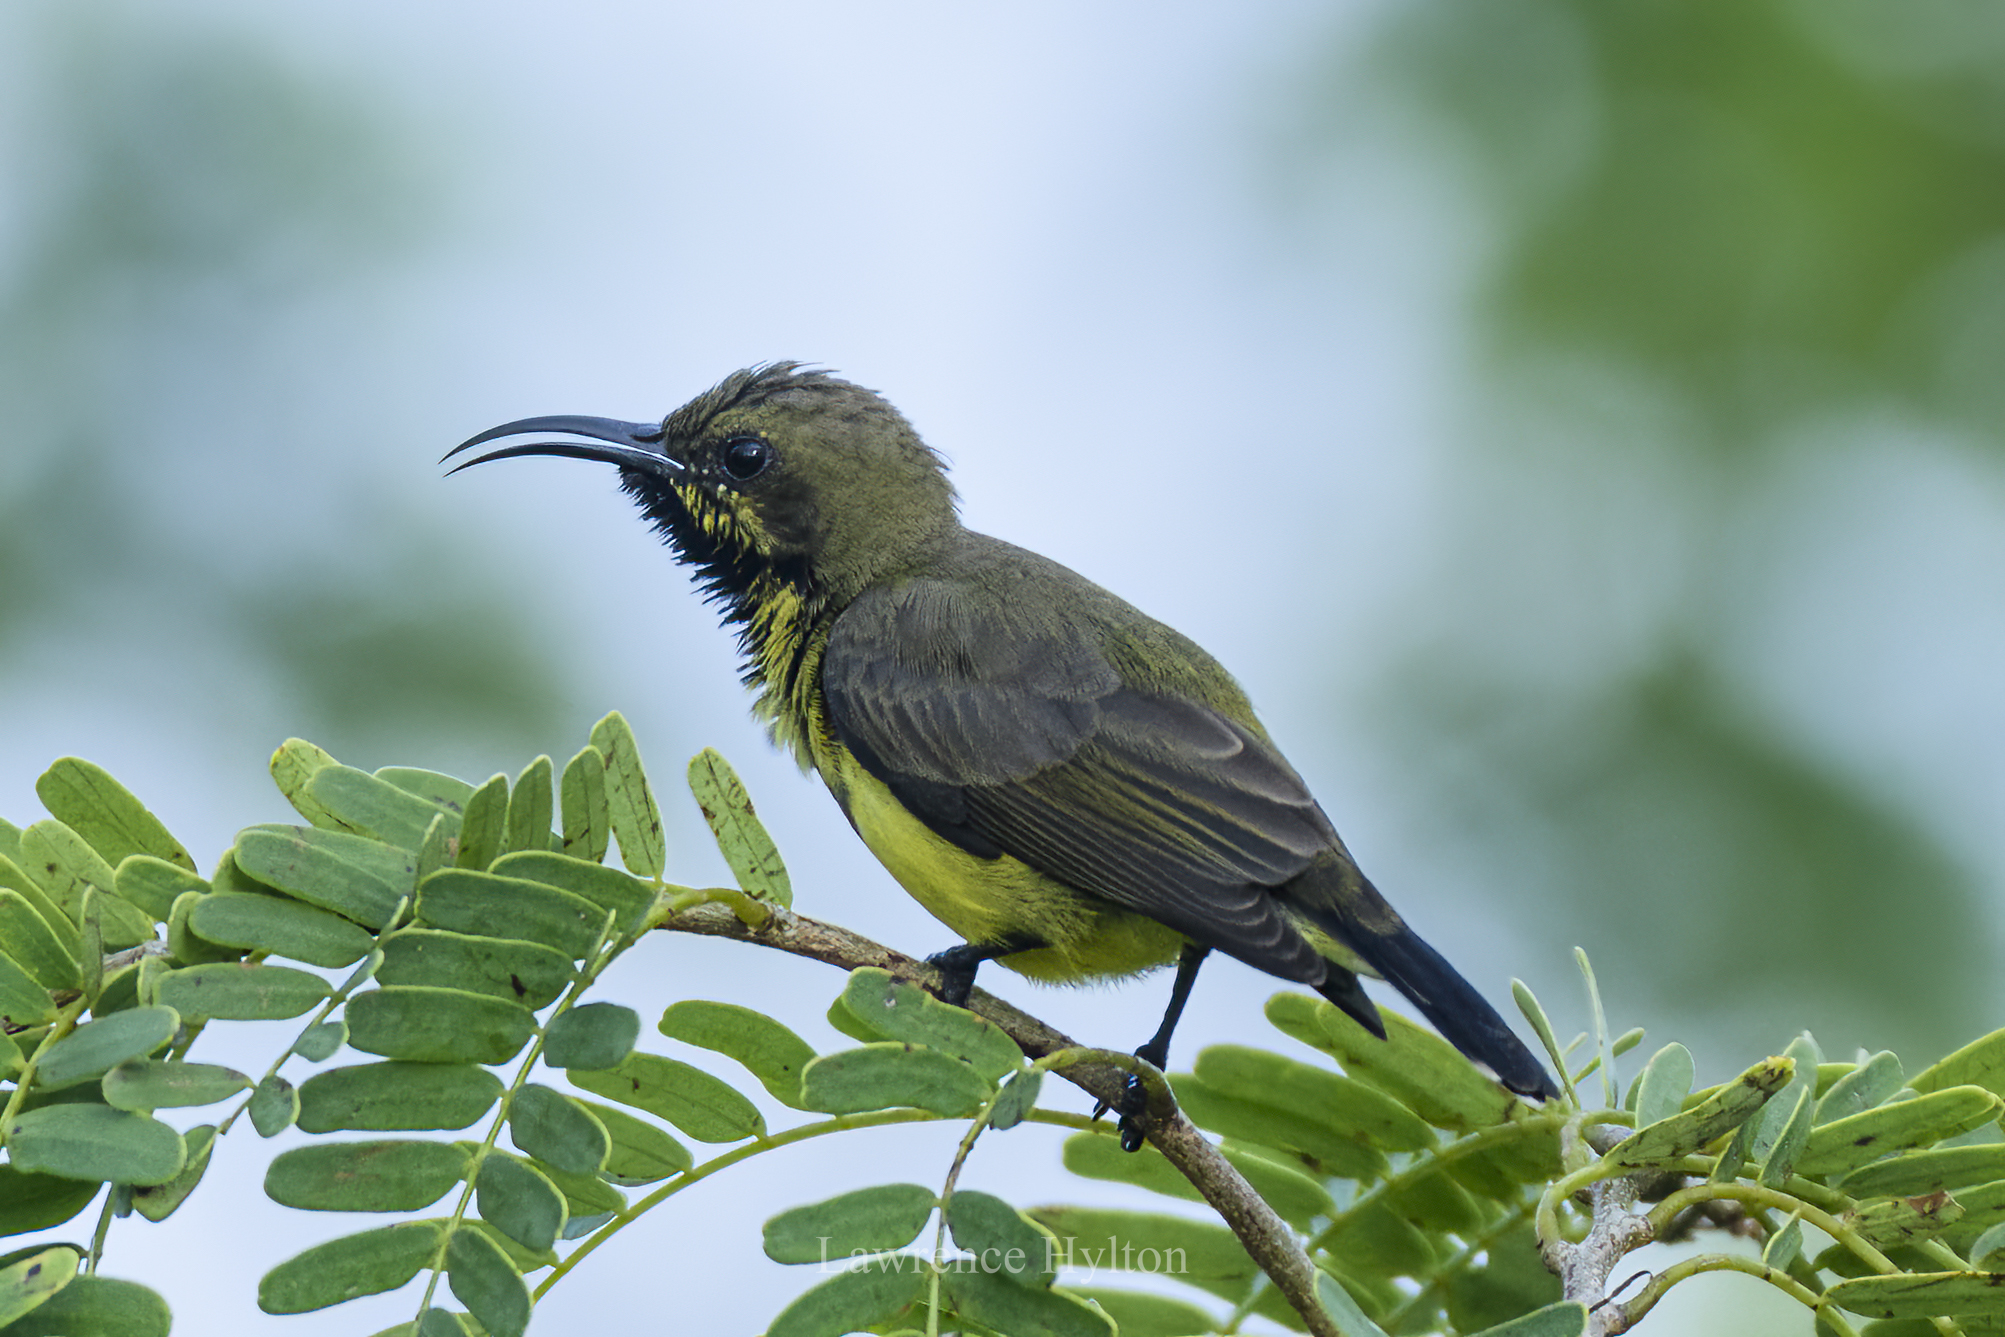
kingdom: Animalia
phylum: Chordata
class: Aves
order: Passeriformes
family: Nectariniidae
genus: Cinnyris
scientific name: Cinnyris
